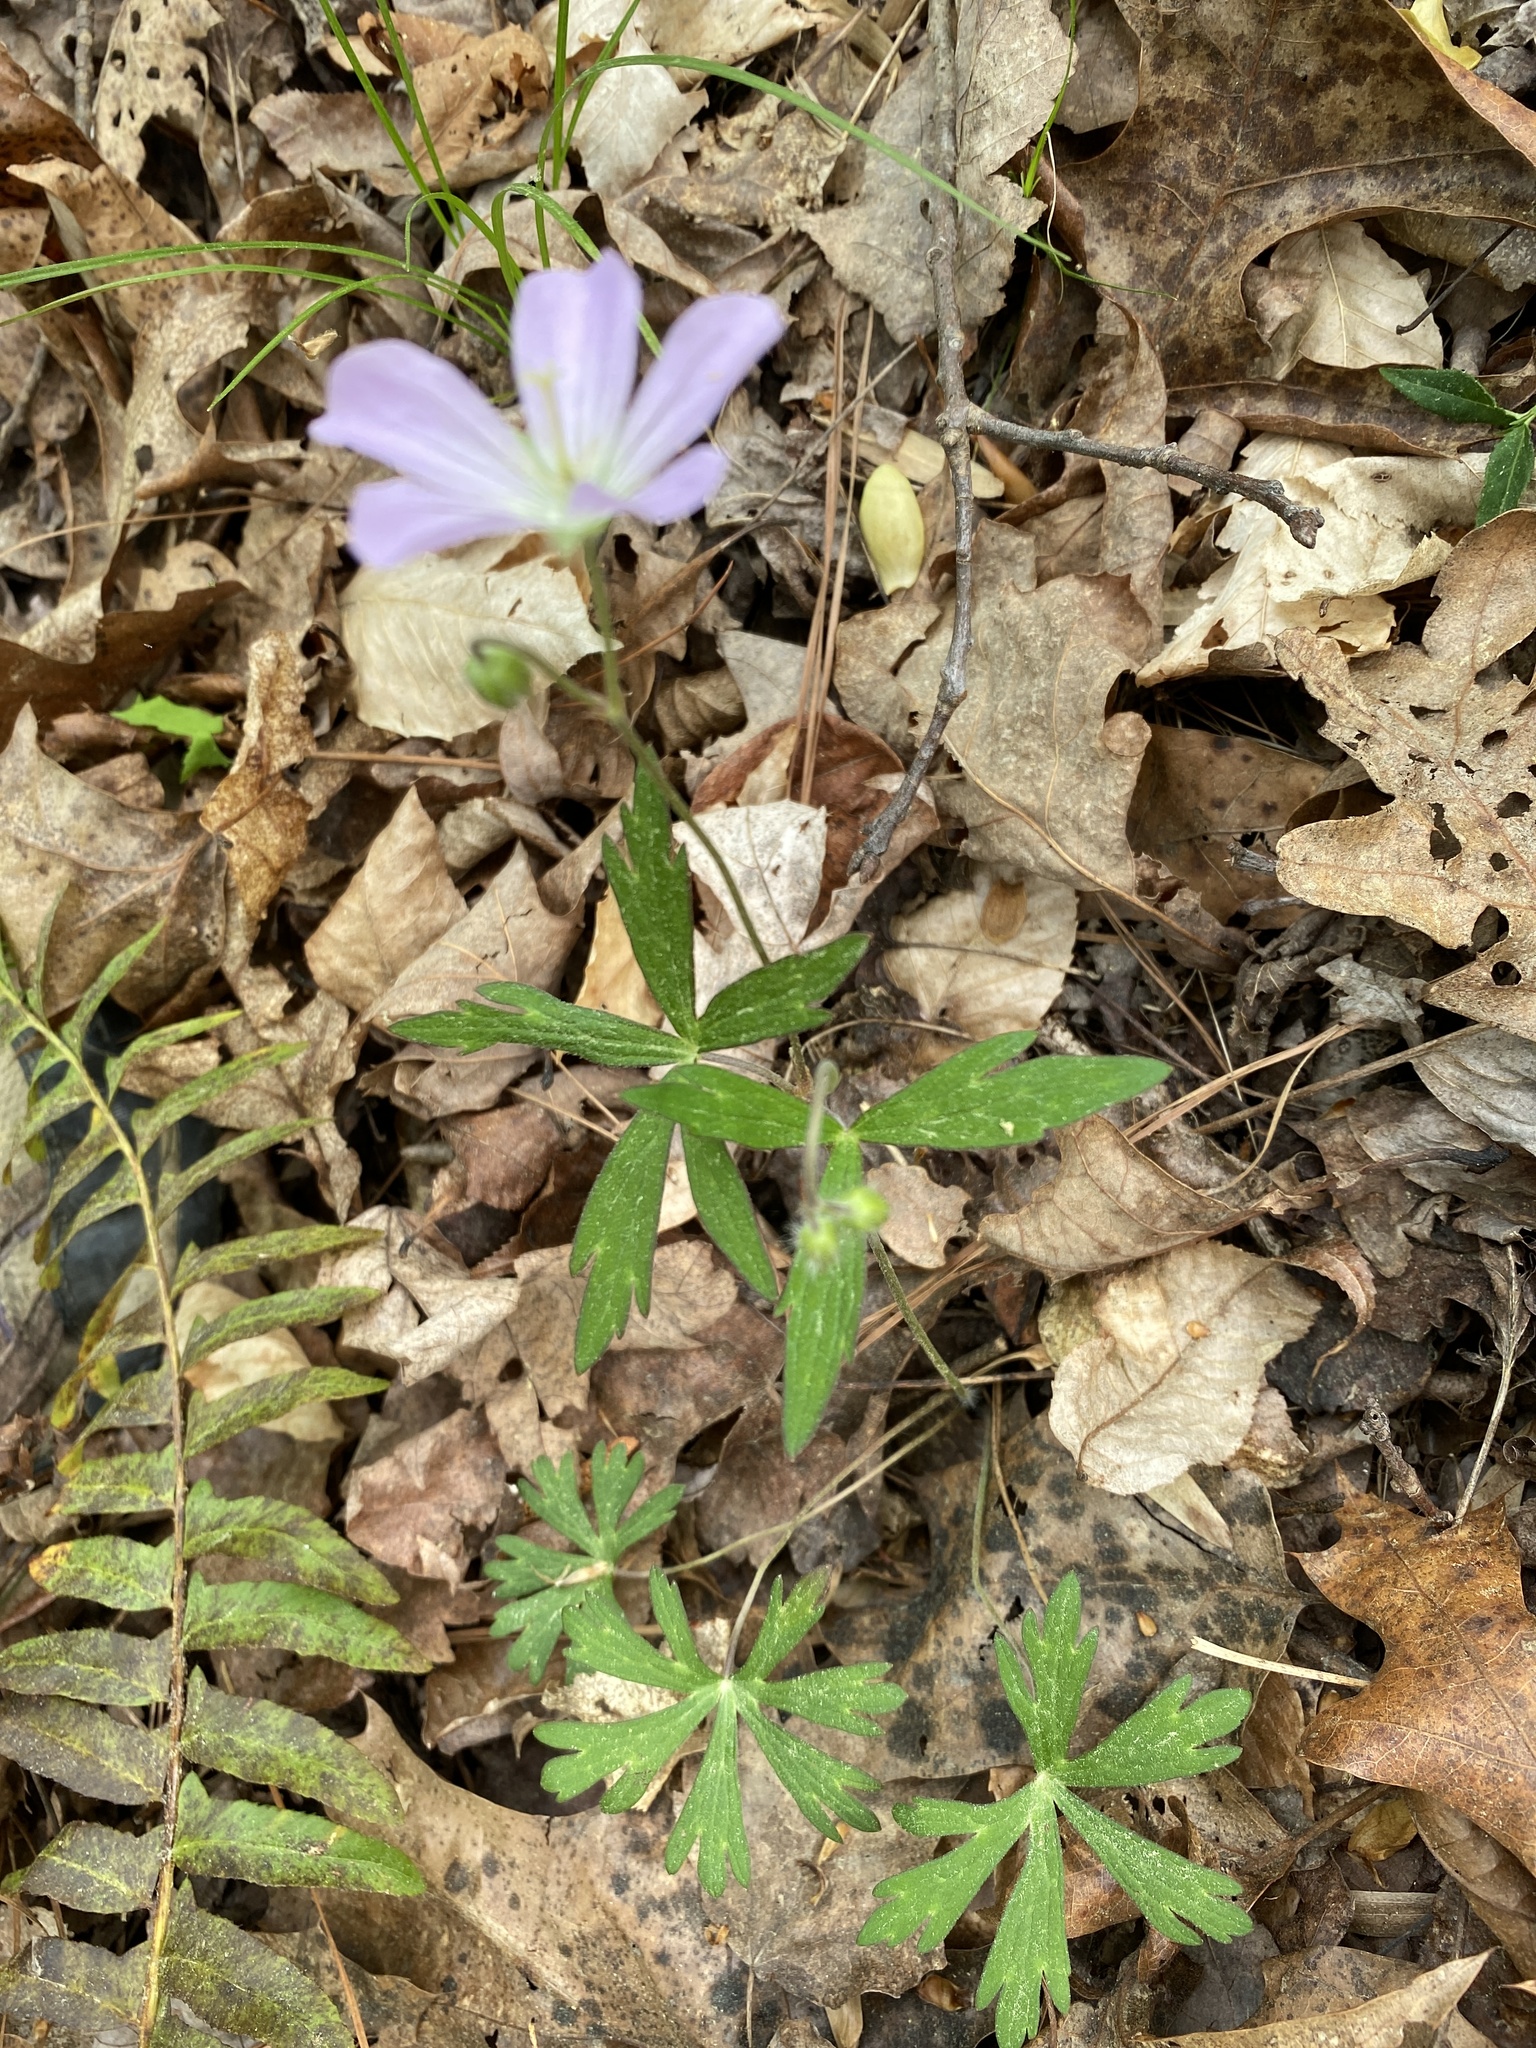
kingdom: Plantae
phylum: Tracheophyta
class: Magnoliopsida
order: Geraniales
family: Geraniaceae
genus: Geranium
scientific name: Geranium maculatum
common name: Spotted geranium
